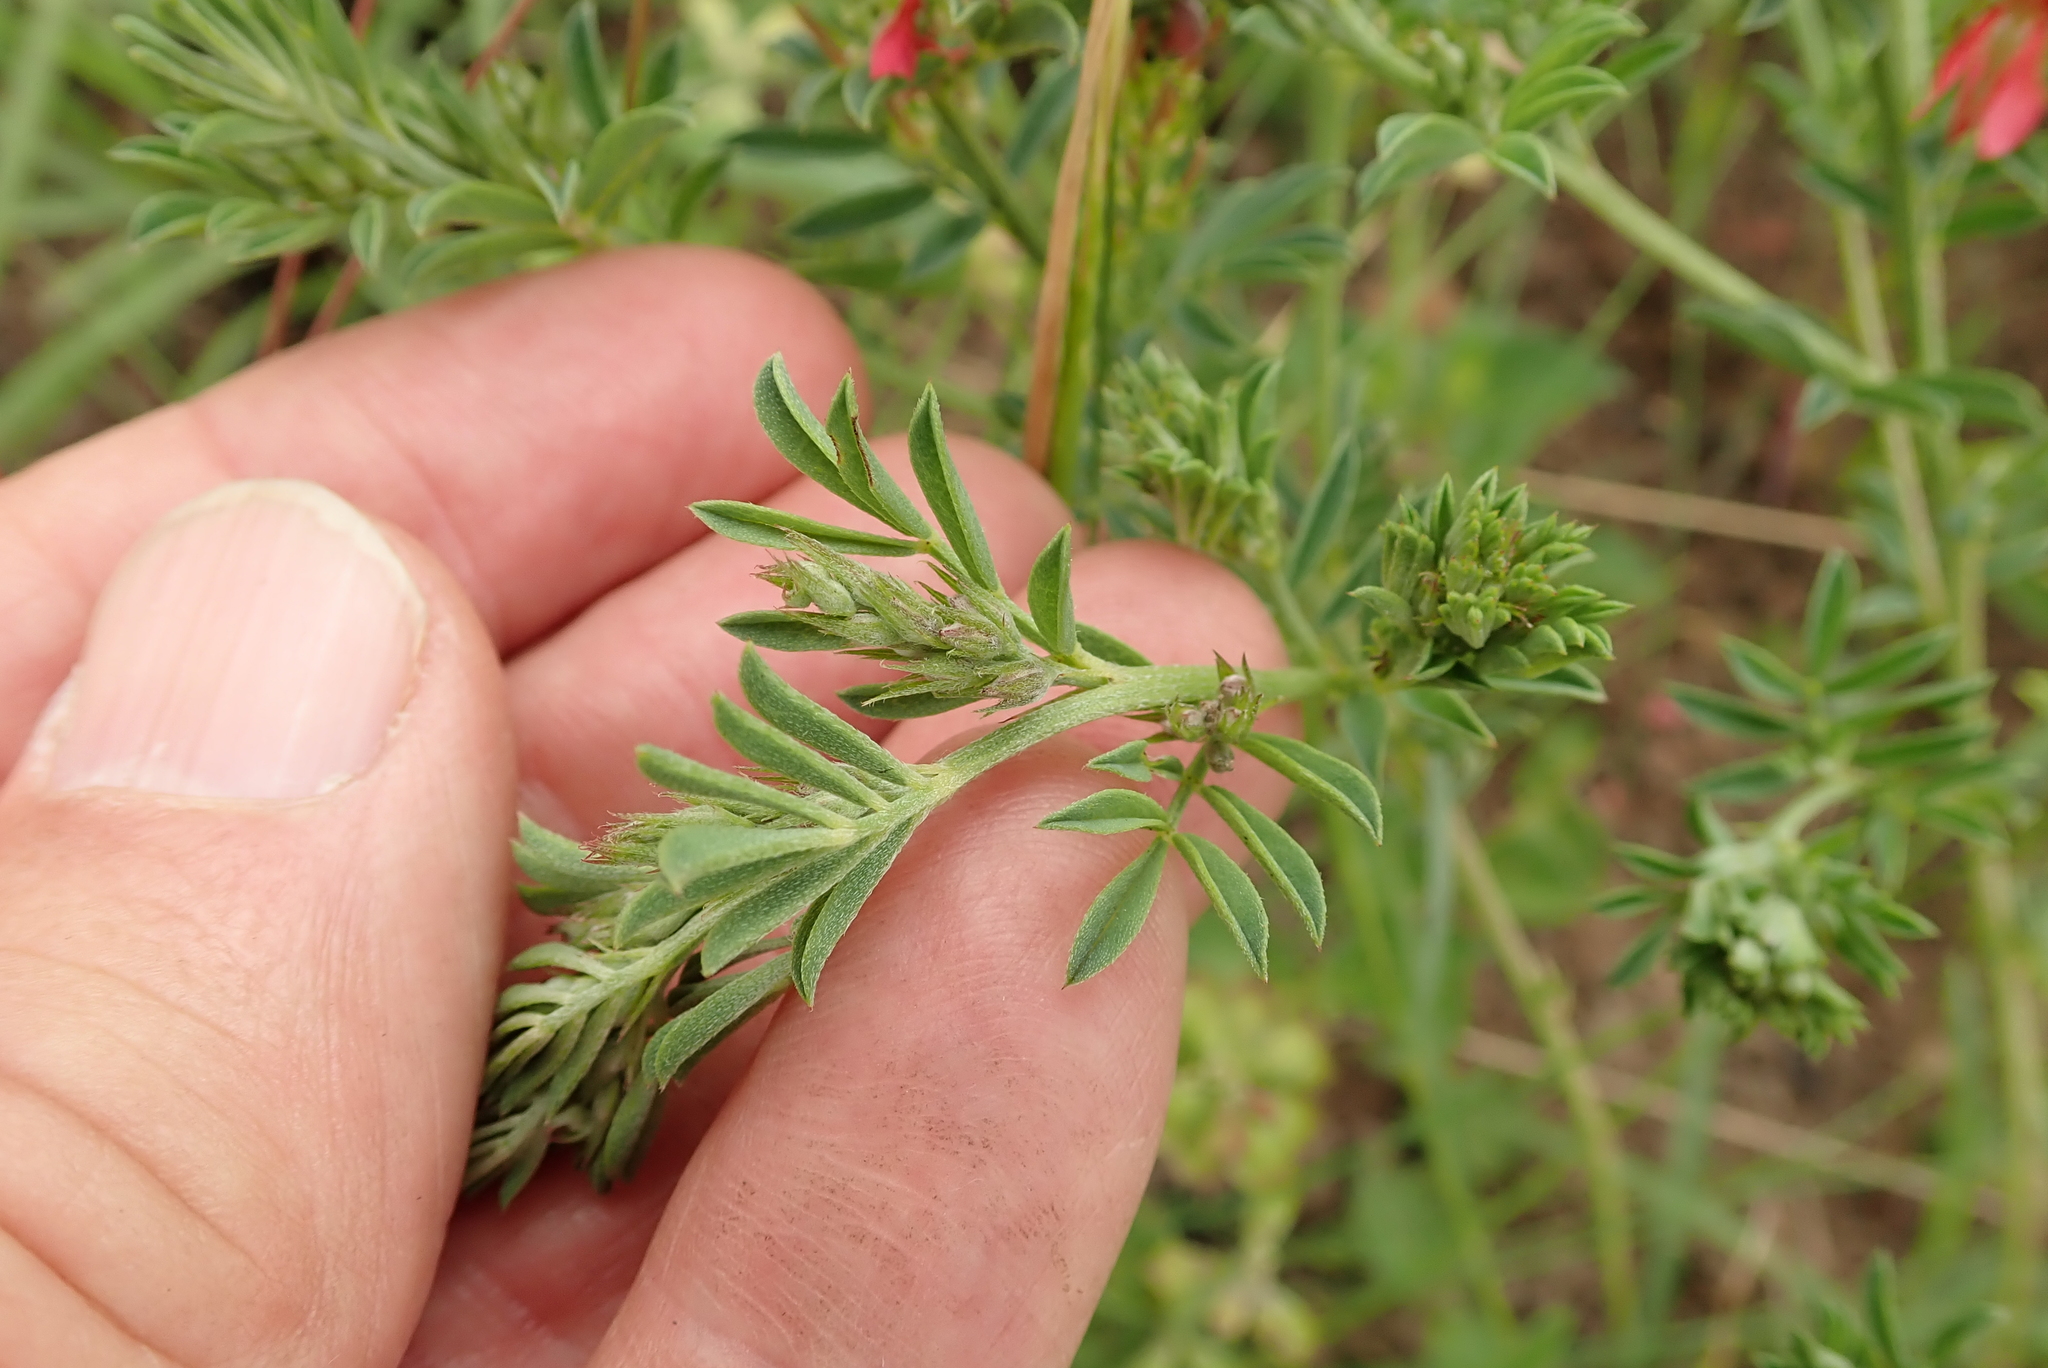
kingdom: Plantae
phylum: Tracheophyta
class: Magnoliopsida
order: Fabales
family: Fabaceae
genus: Indigofera
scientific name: Indigofera hilaris
